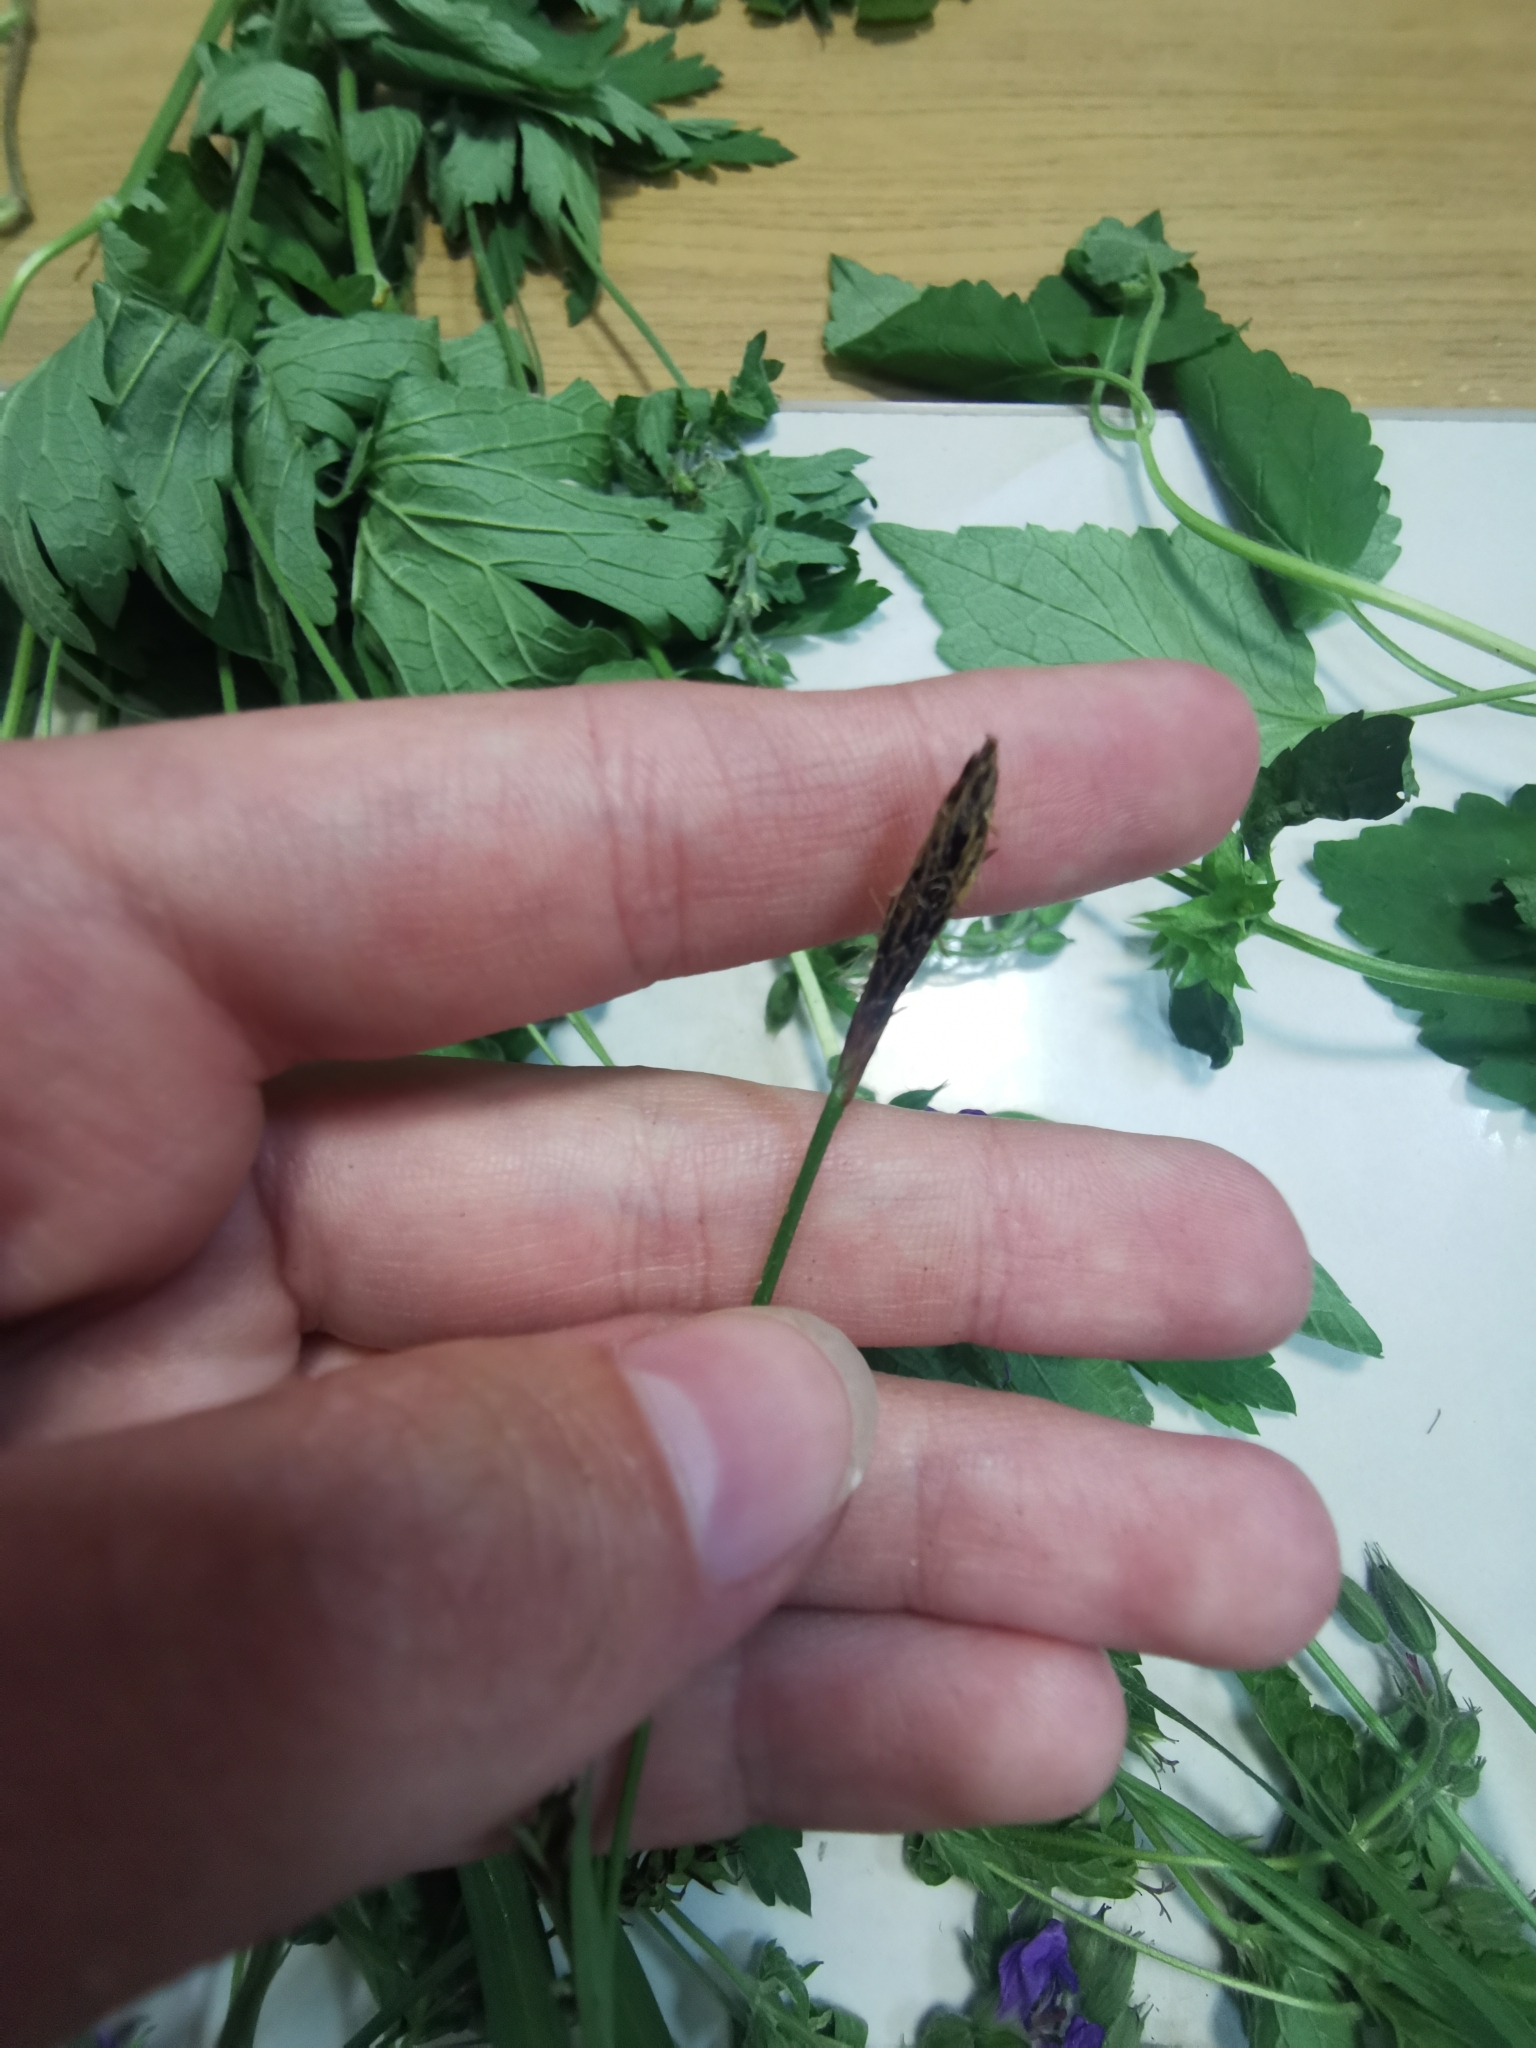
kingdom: Plantae
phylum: Tracheophyta
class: Liliopsida
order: Poales
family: Cyperaceae
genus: Carex
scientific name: Carex pilosa
